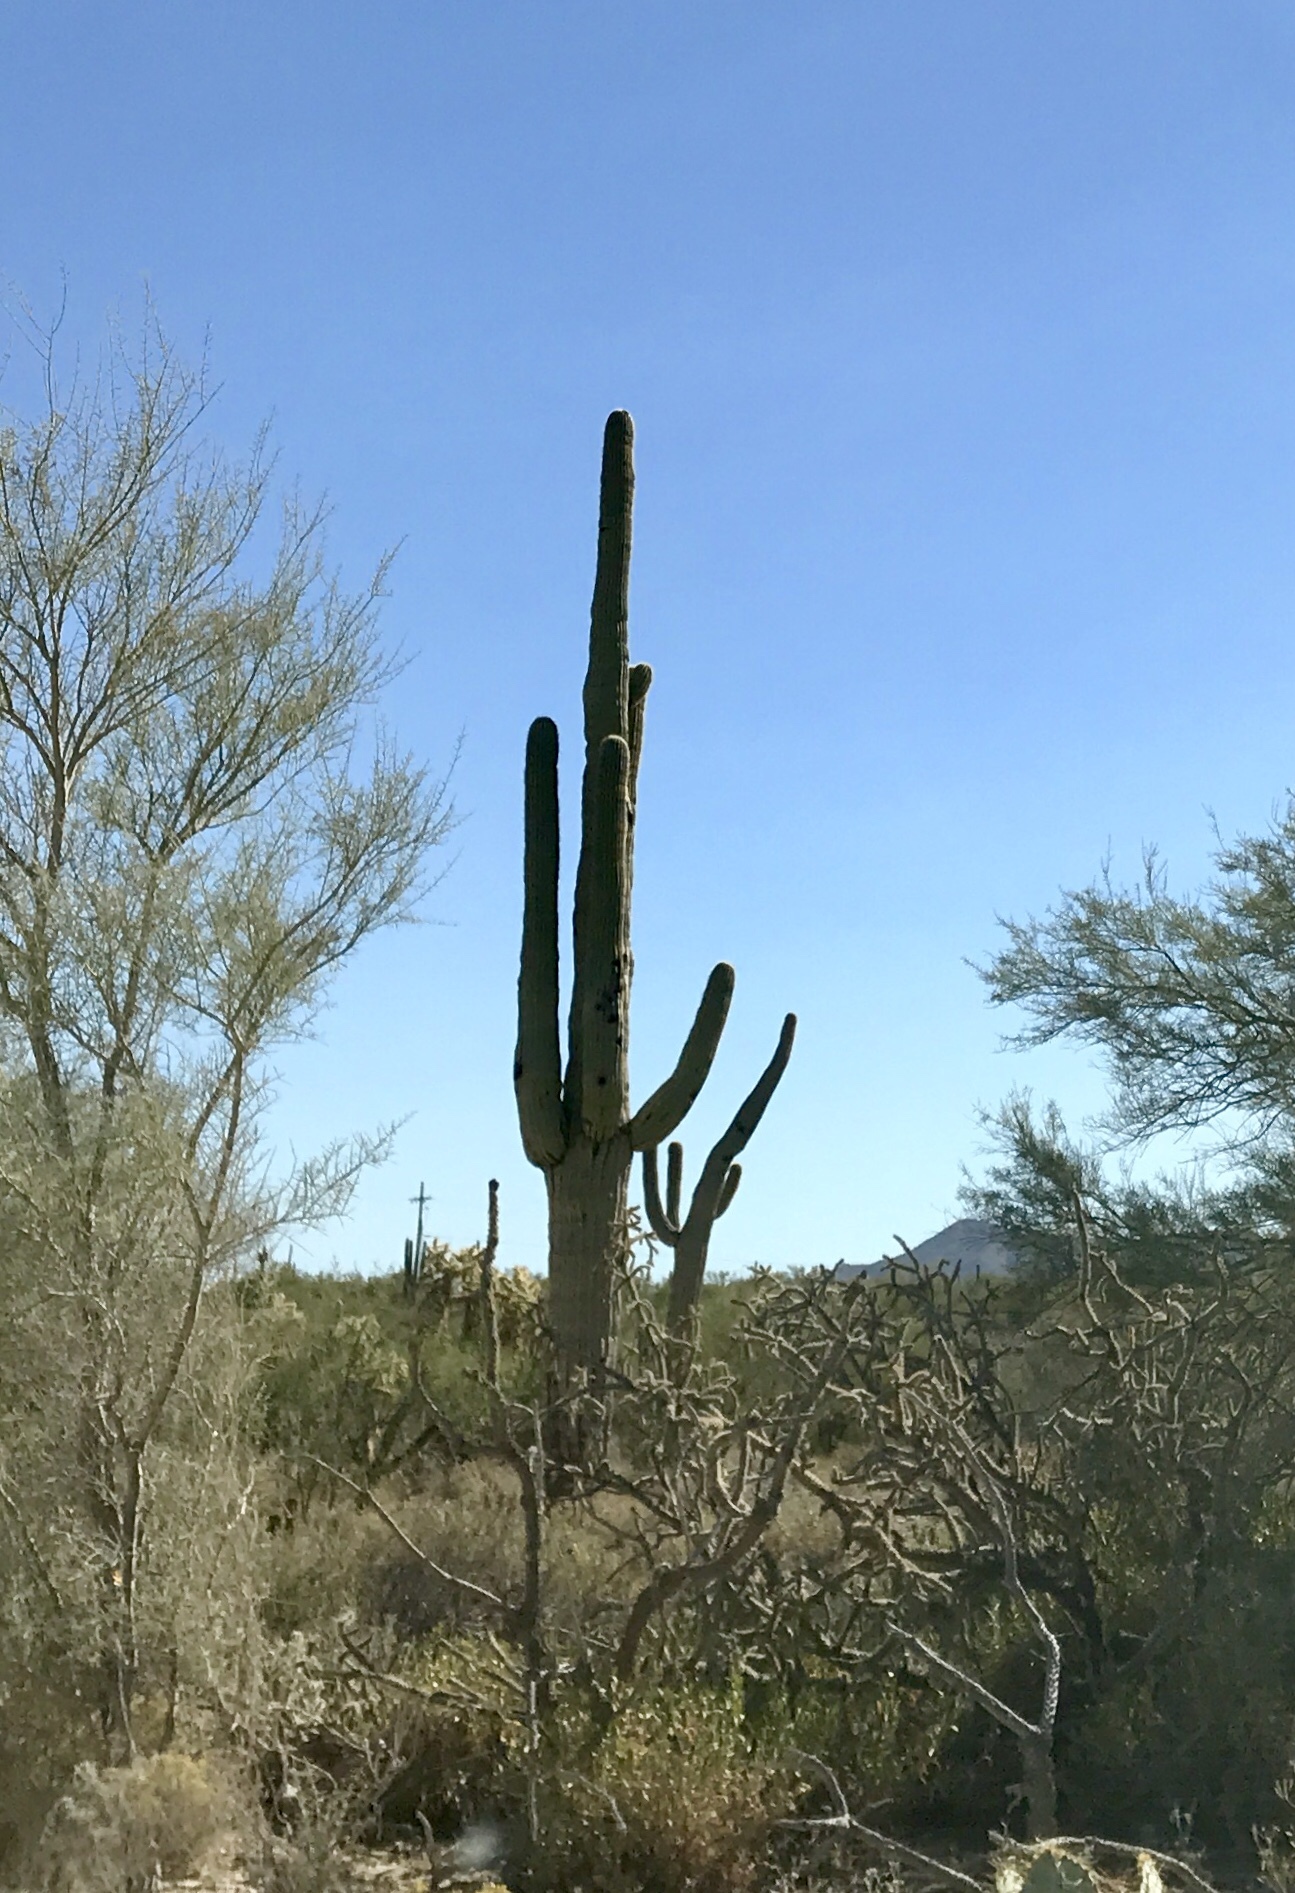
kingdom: Plantae
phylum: Tracheophyta
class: Magnoliopsida
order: Caryophyllales
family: Cactaceae
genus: Carnegiea
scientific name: Carnegiea gigantea
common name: Saguaro
